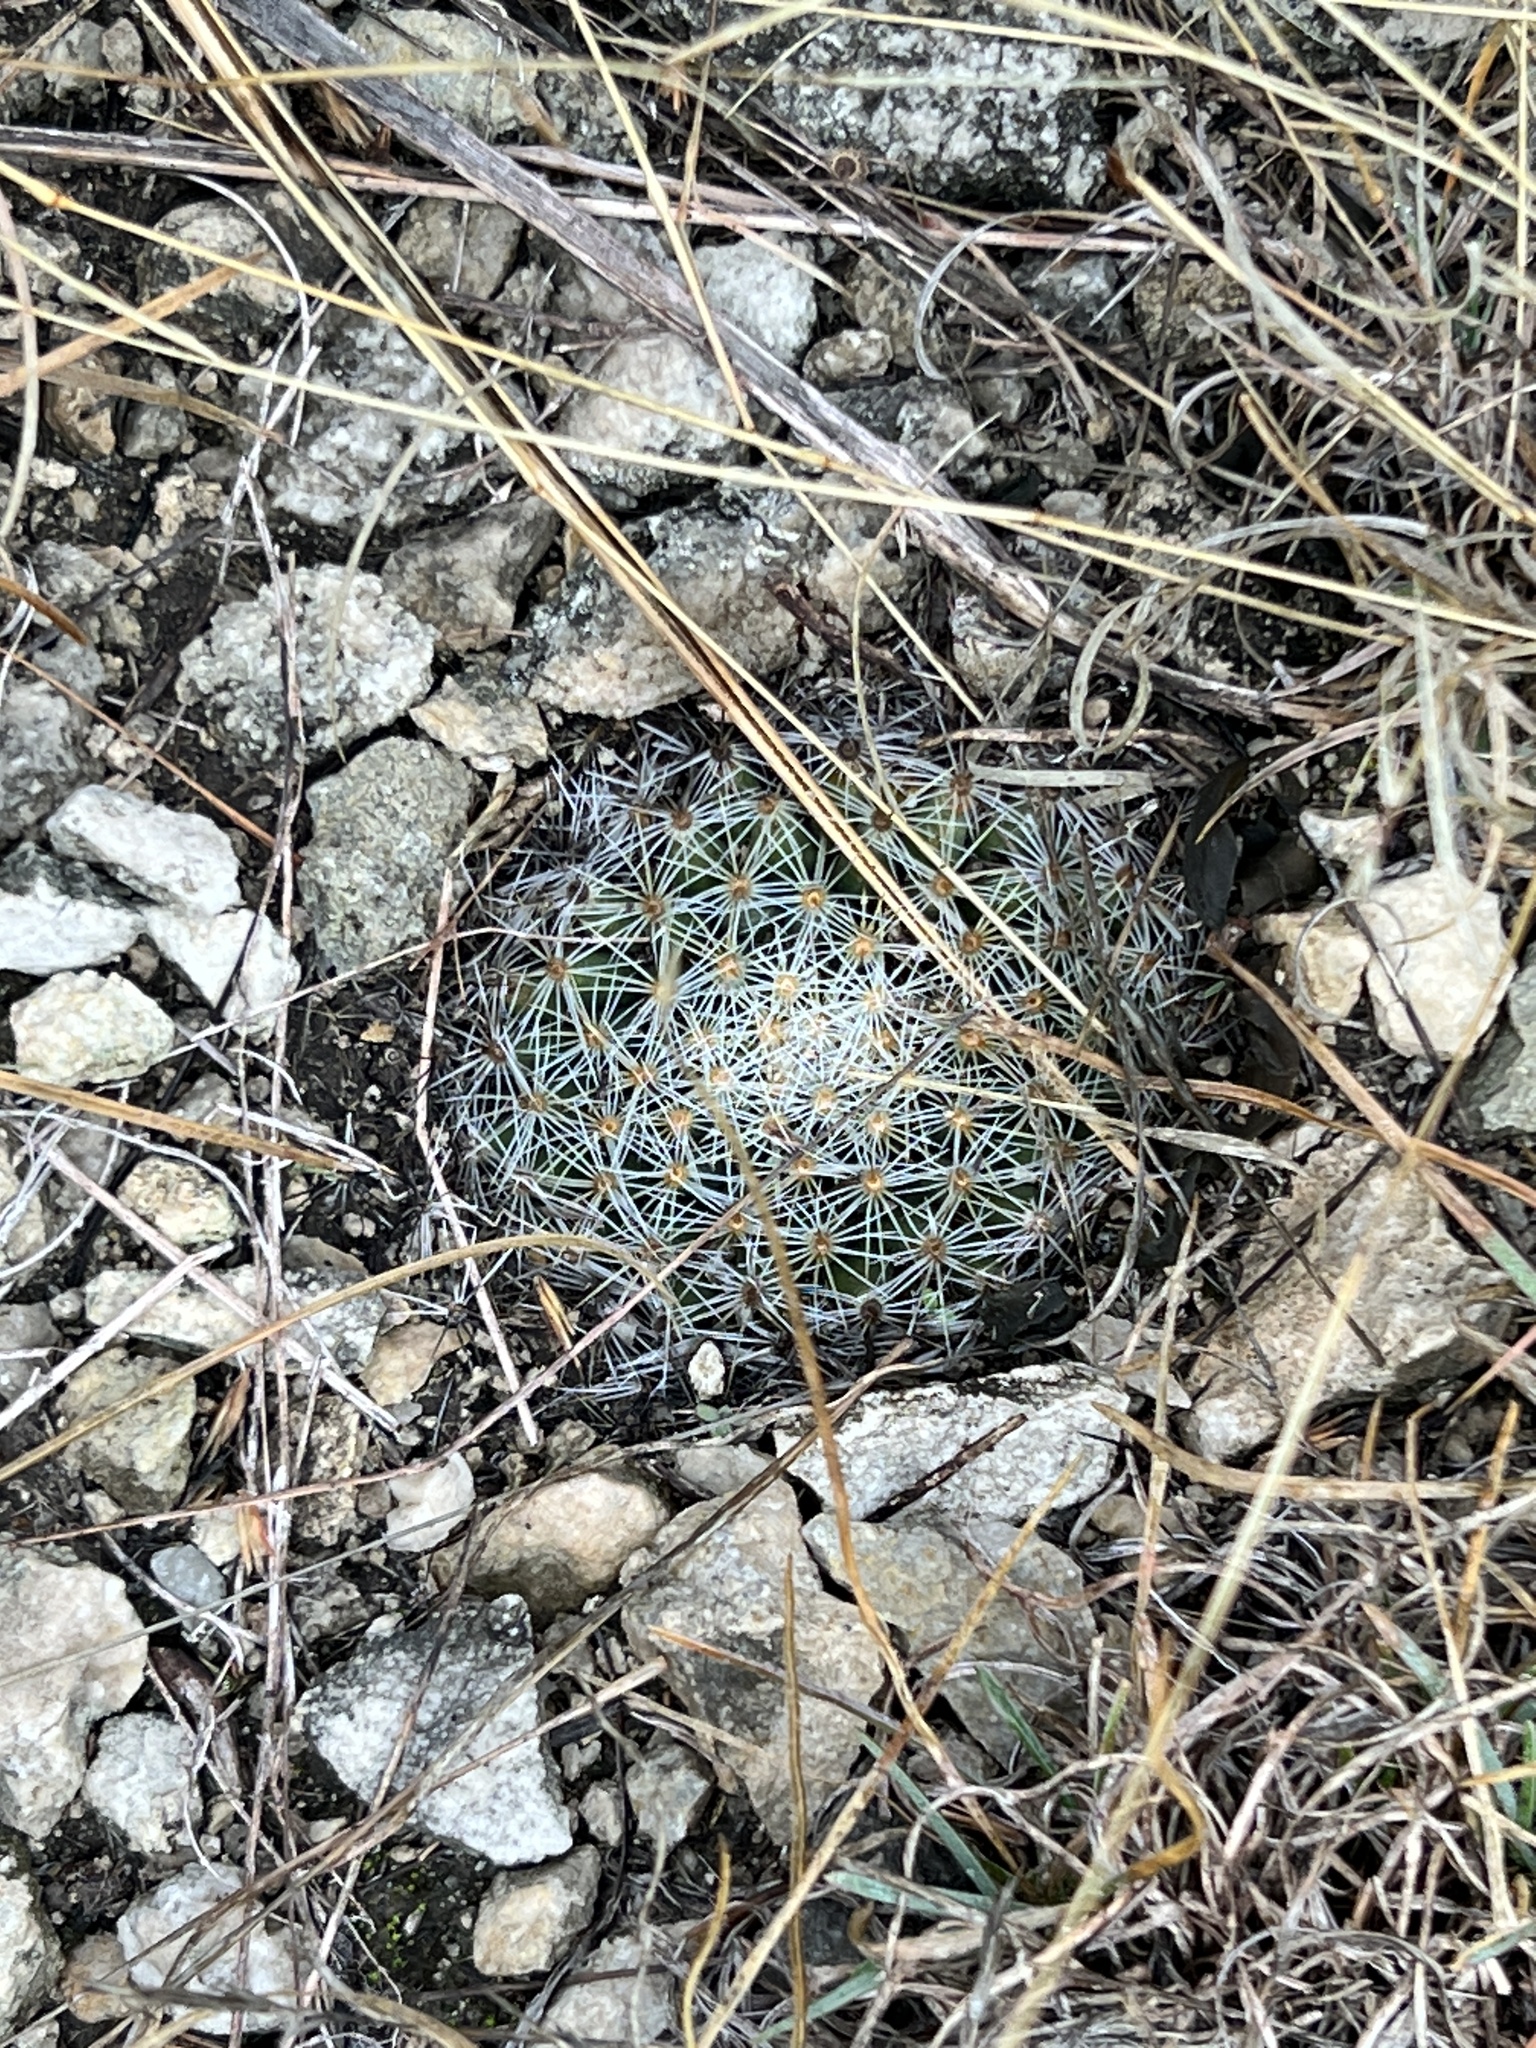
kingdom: Plantae
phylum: Tracheophyta
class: Magnoliopsida
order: Caryophyllales
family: Cactaceae
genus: Mammillaria
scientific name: Mammillaria heyderi
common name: Little nipple cactus
